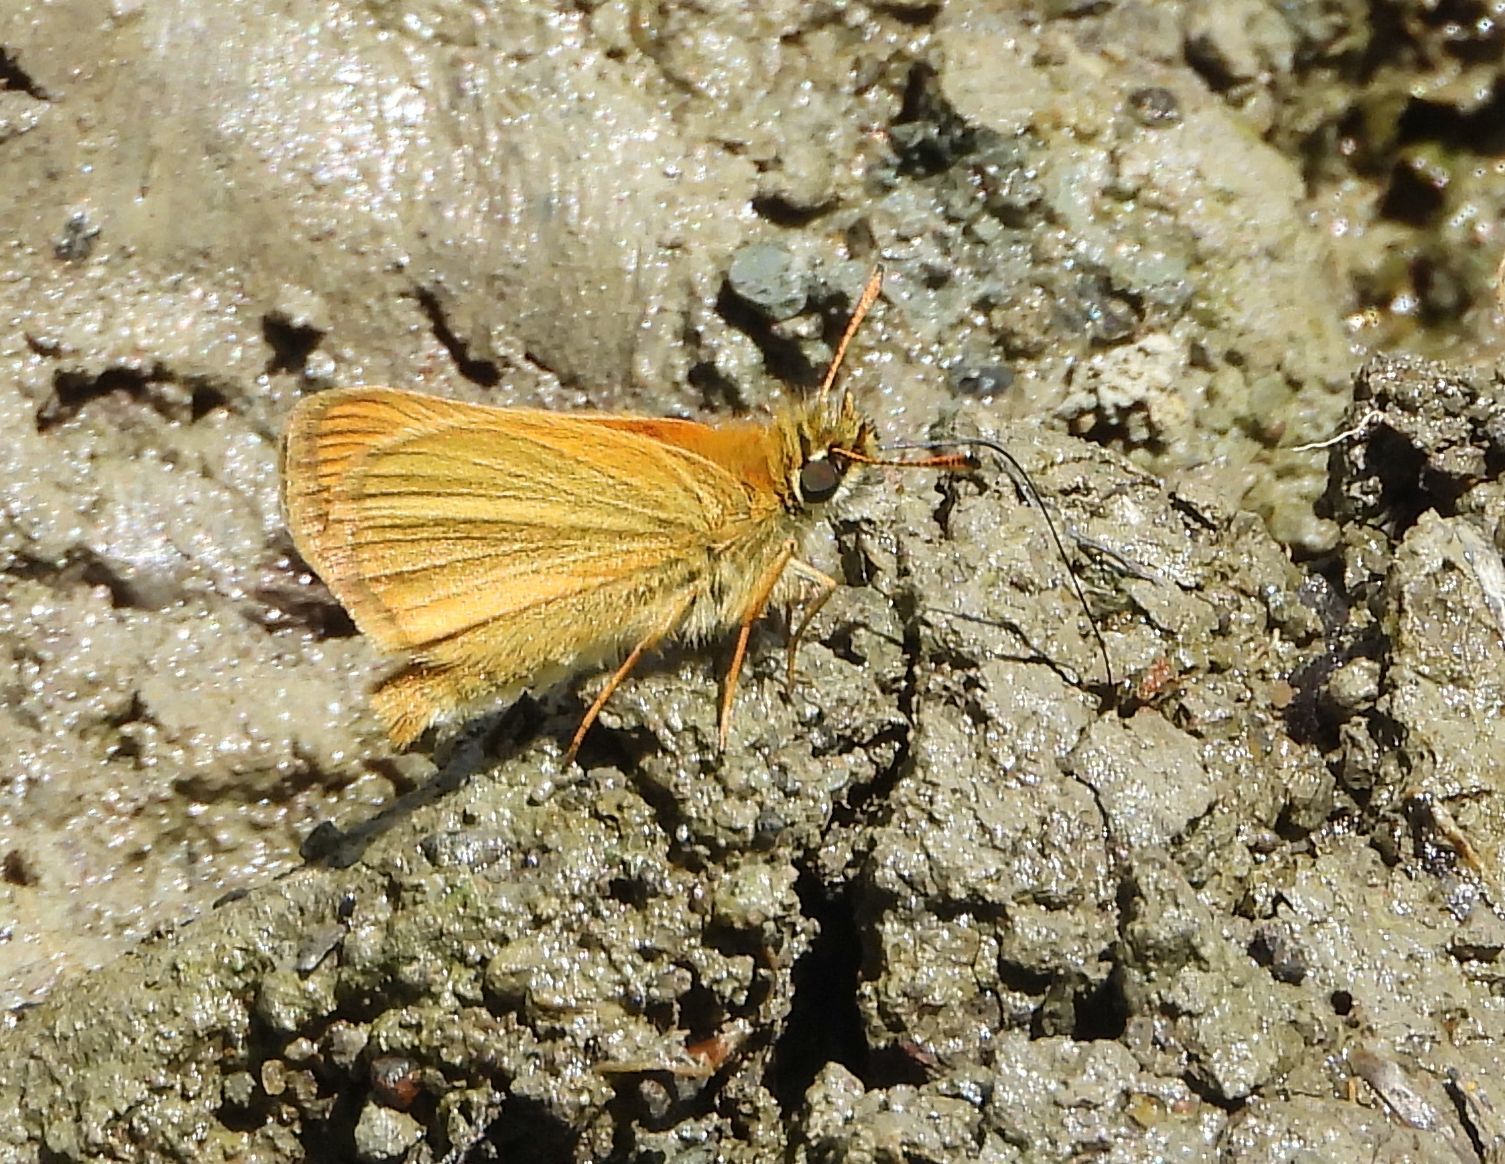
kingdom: Animalia
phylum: Arthropoda
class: Insecta
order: Lepidoptera
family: Hesperiidae
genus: Thymelicus
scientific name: Thymelicus lineola
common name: Essex skipper
